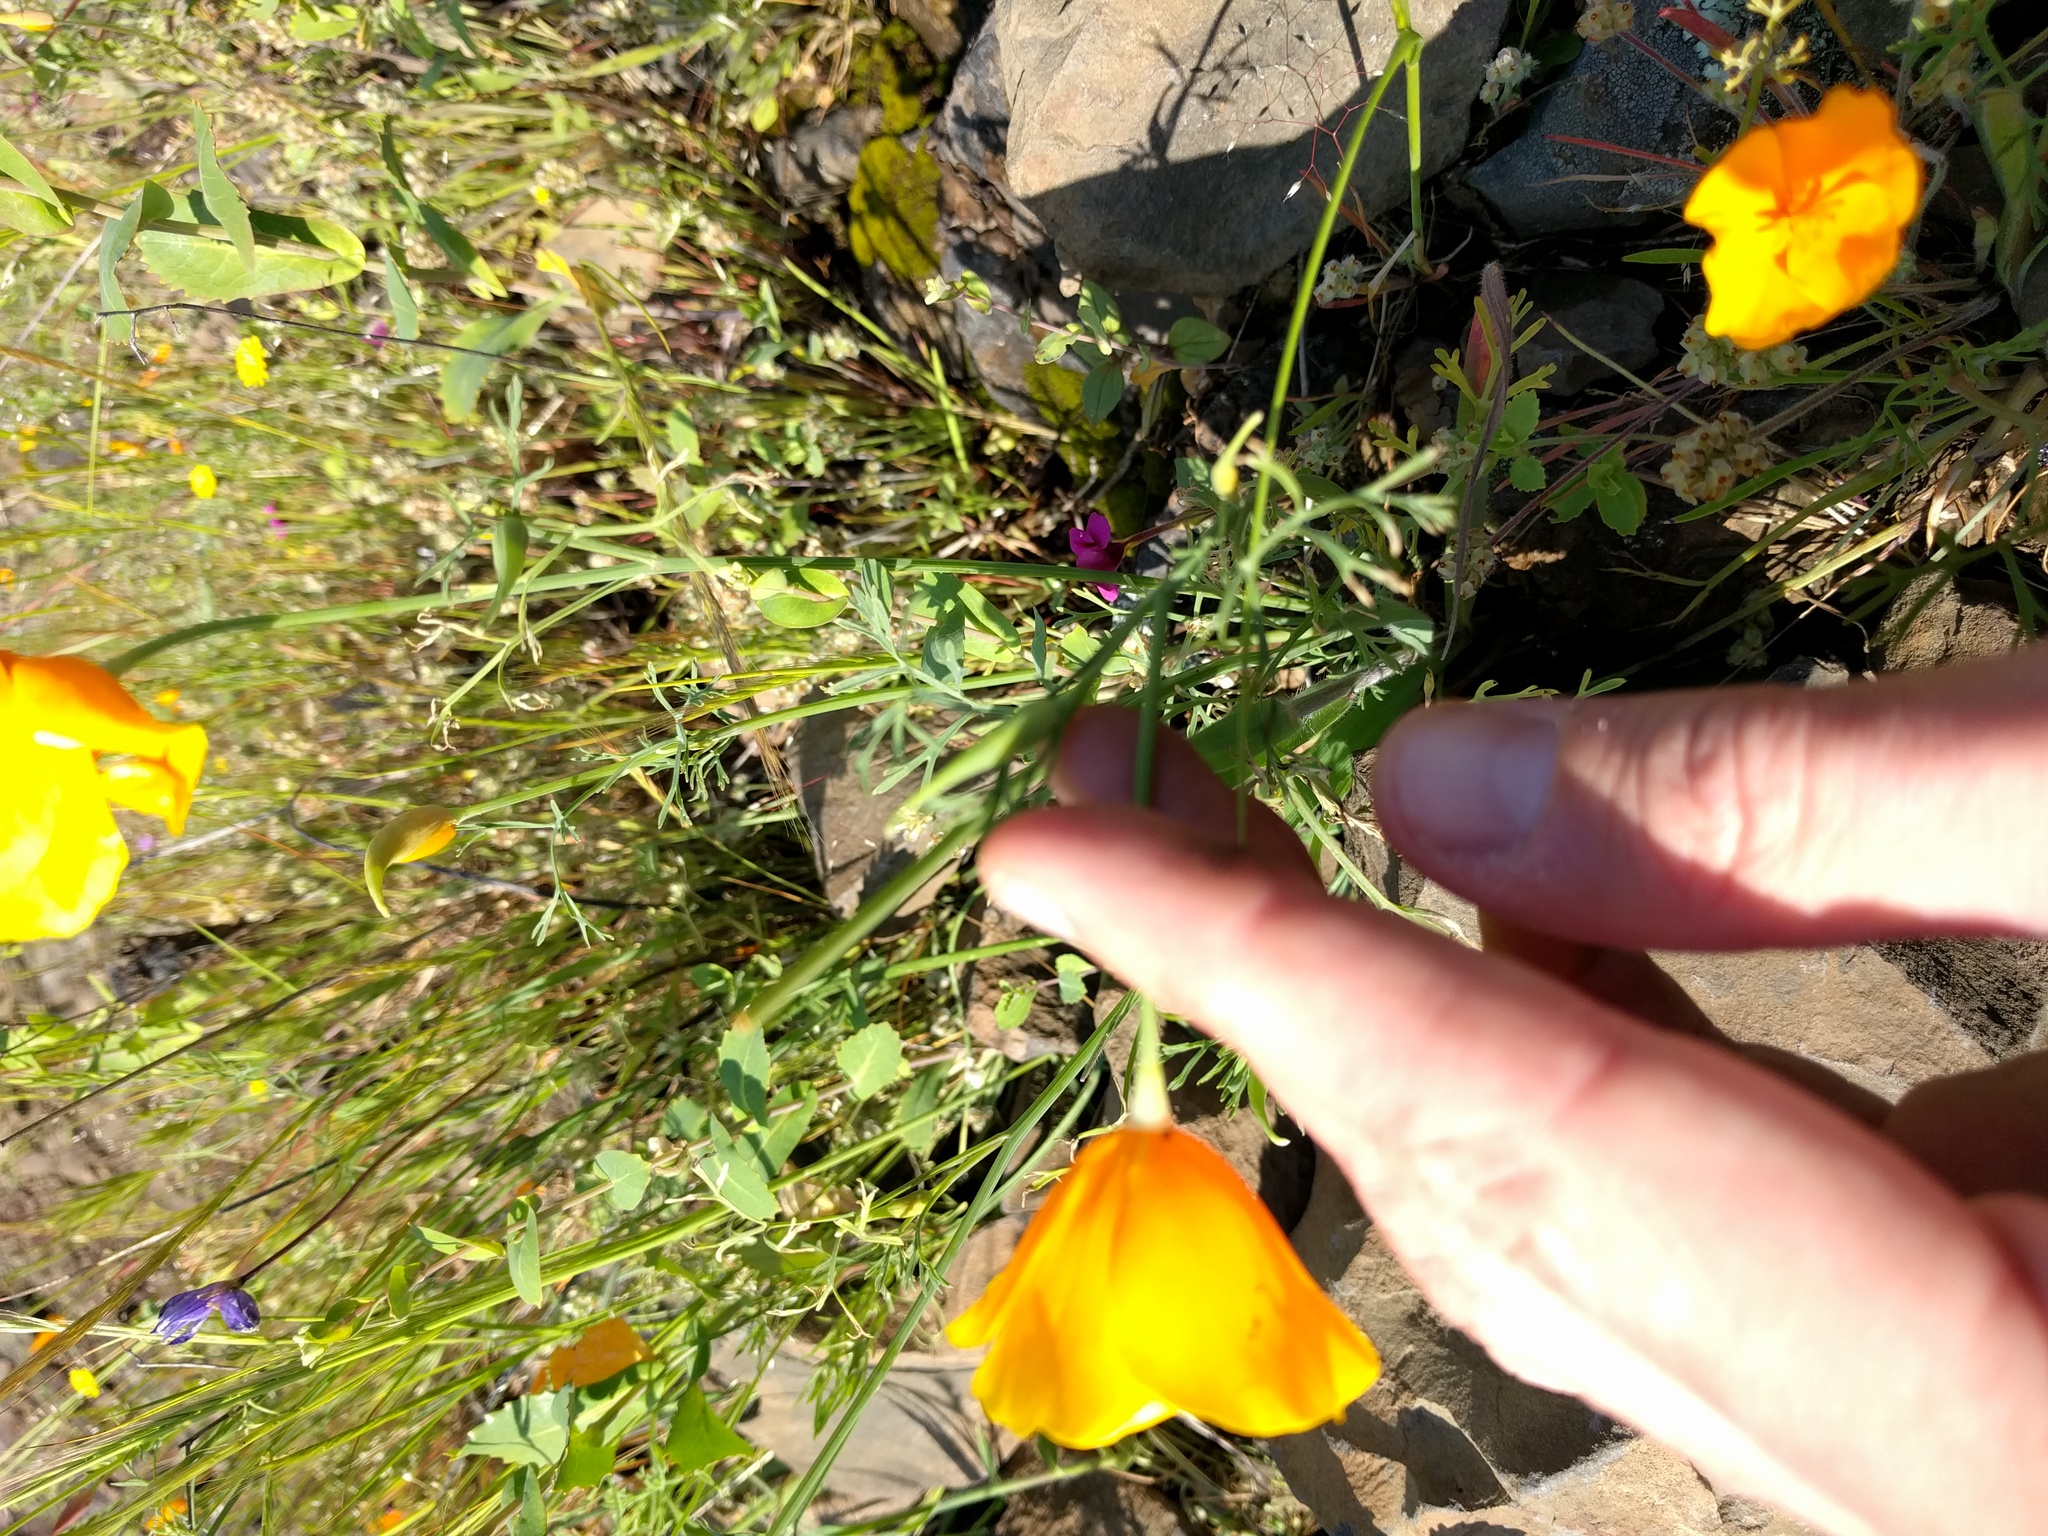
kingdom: Plantae
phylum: Tracheophyta
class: Magnoliopsida
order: Ranunculales
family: Papaveraceae
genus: Eschscholzia
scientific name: Eschscholzia caespitosa
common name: Tufted california-poppy
